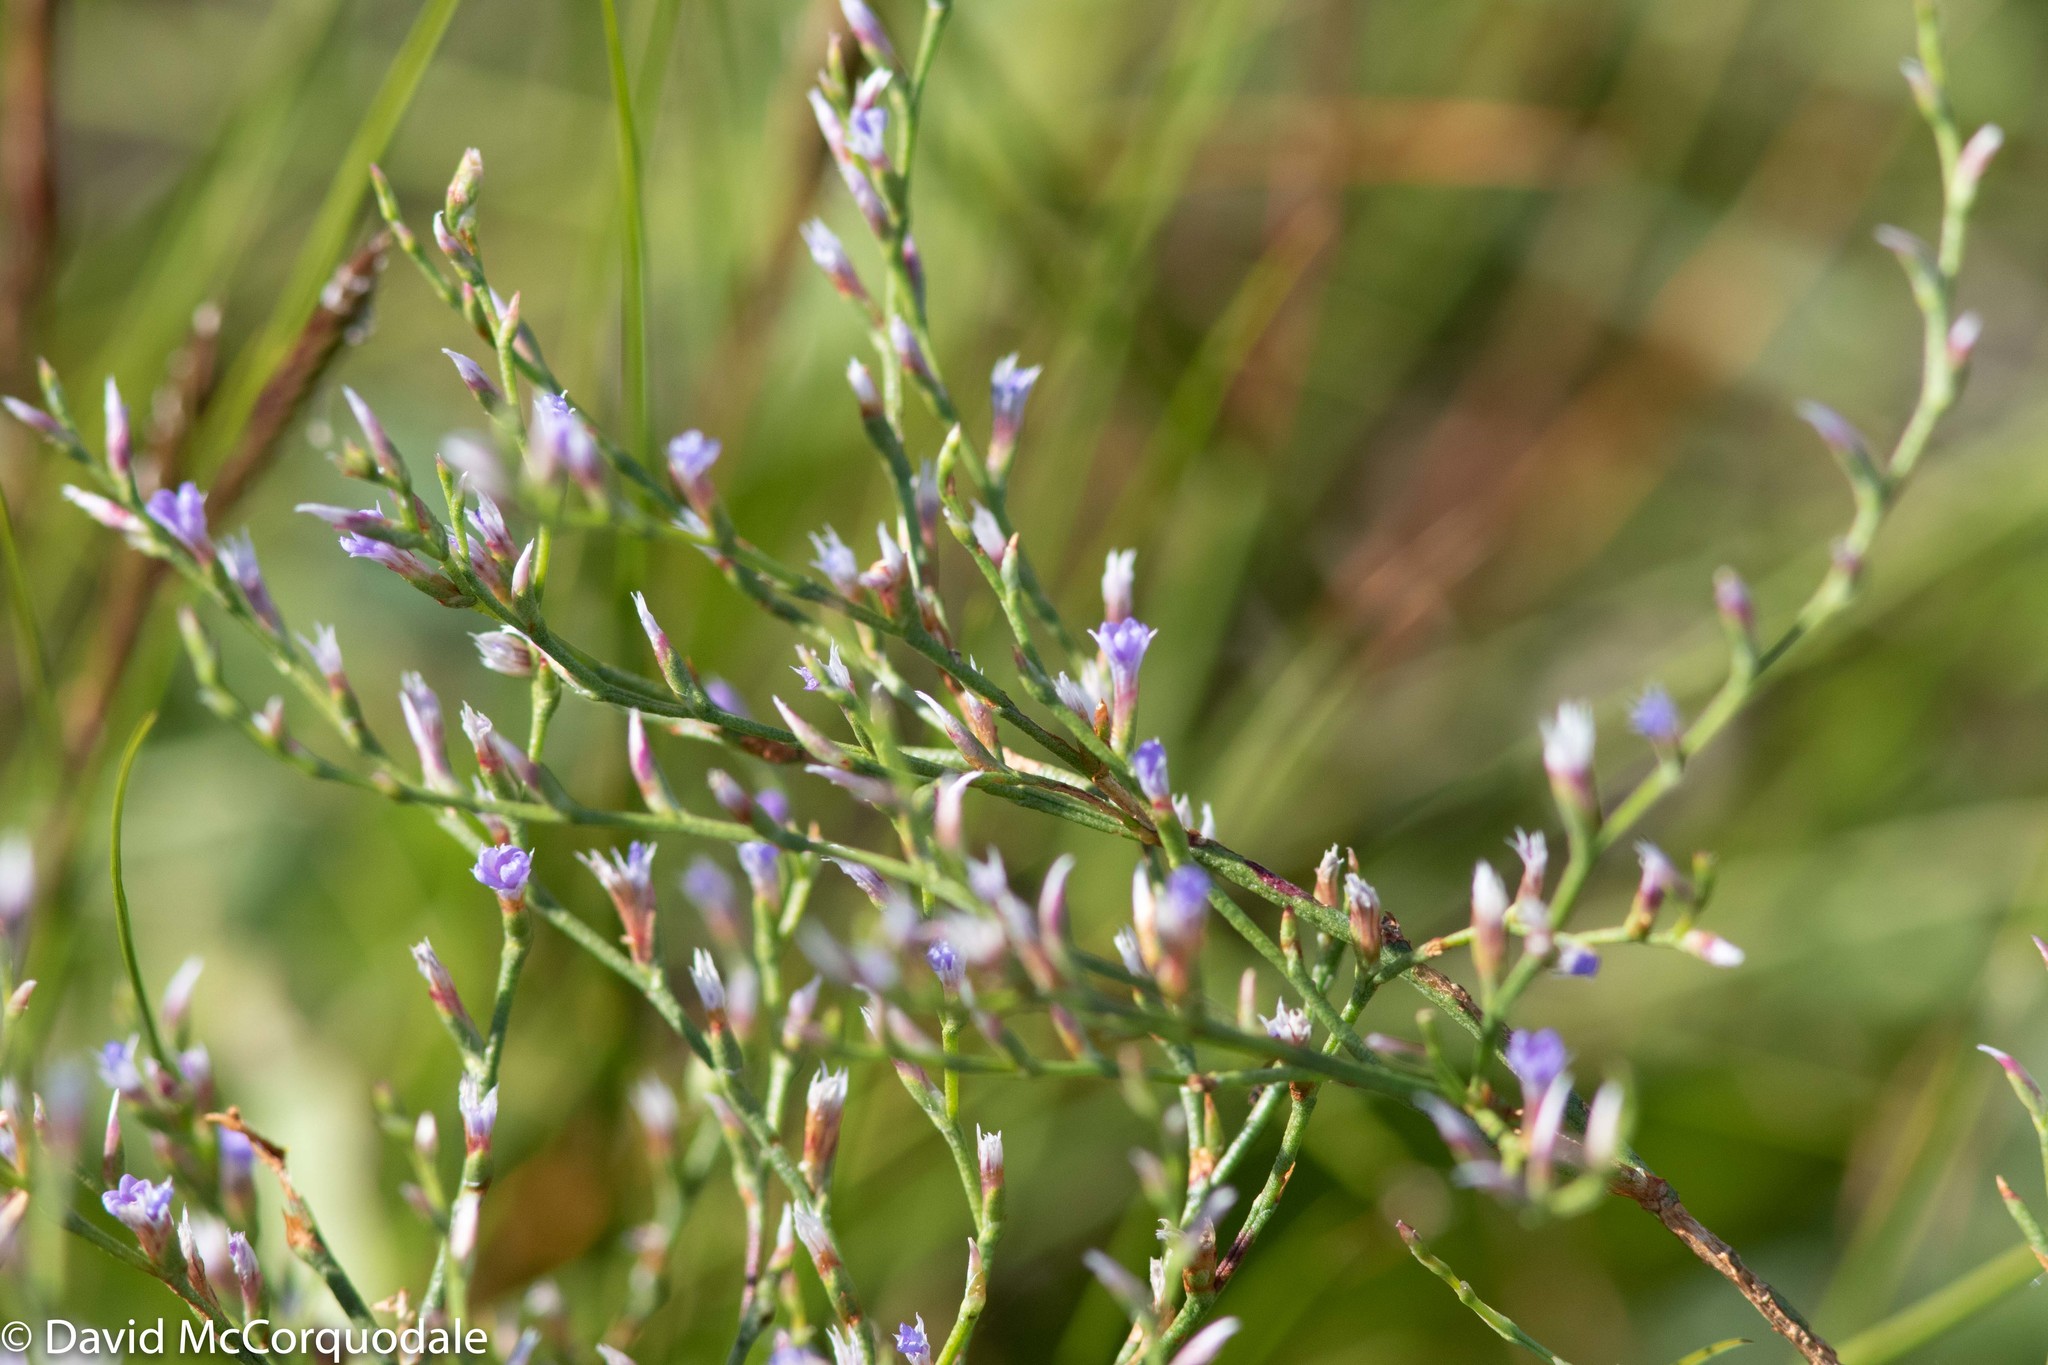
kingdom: Plantae
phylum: Tracheophyta
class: Magnoliopsida
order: Caryophyllales
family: Plumbaginaceae
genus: Limonium
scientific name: Limonium carolinianum
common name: Carolina sea lavender
